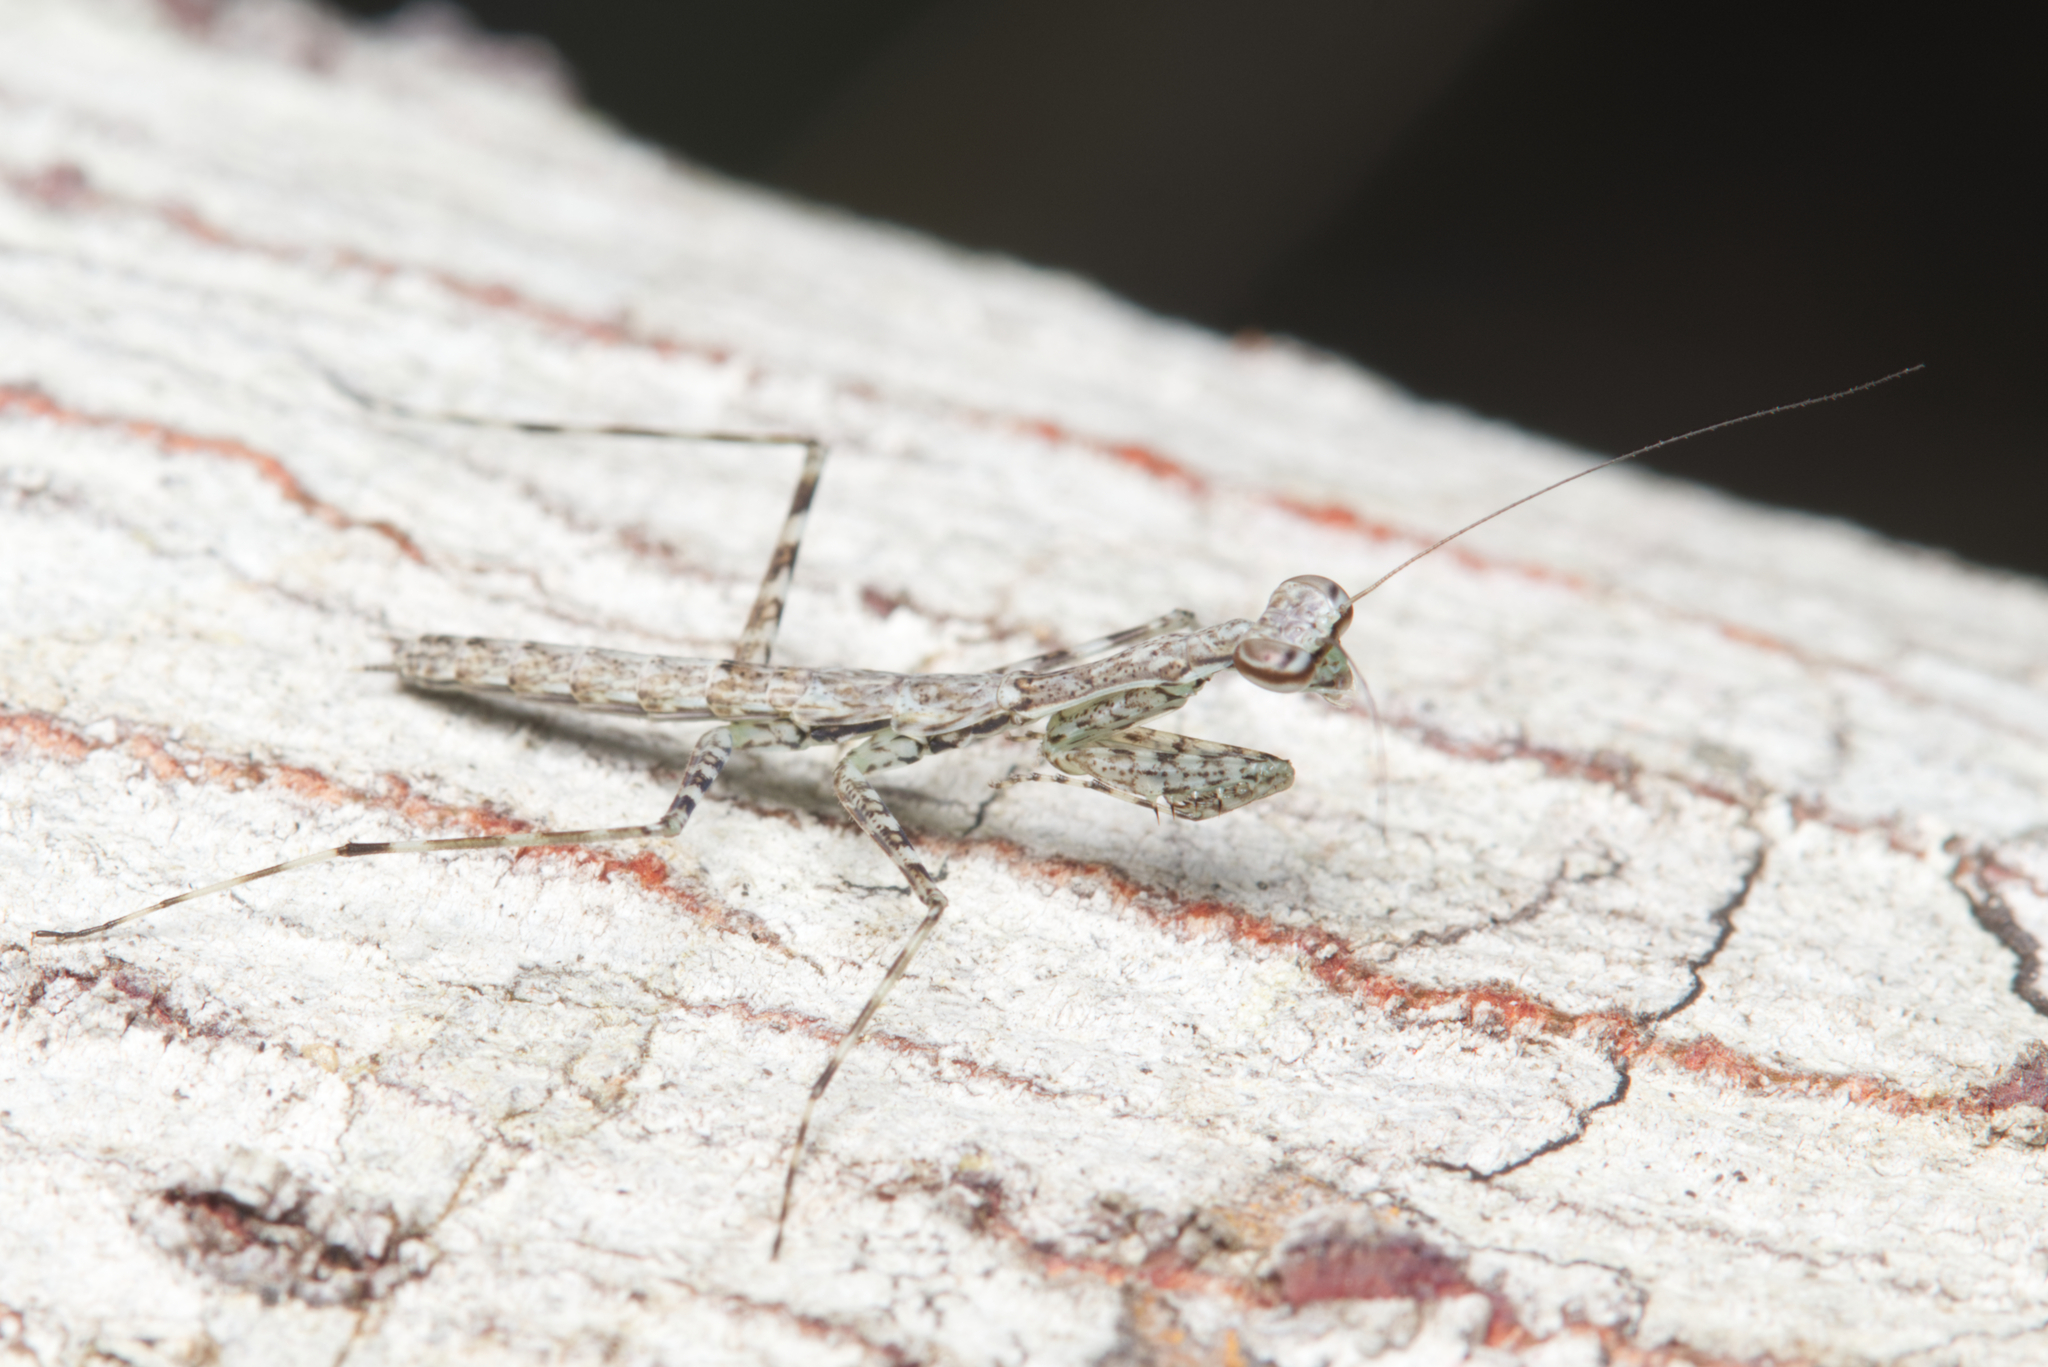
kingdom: Animalia
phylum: Arthropoda
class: Insecta
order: Mantodea
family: Nanomantidae
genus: Ciulfina
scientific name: Ciulfina baldersoni
